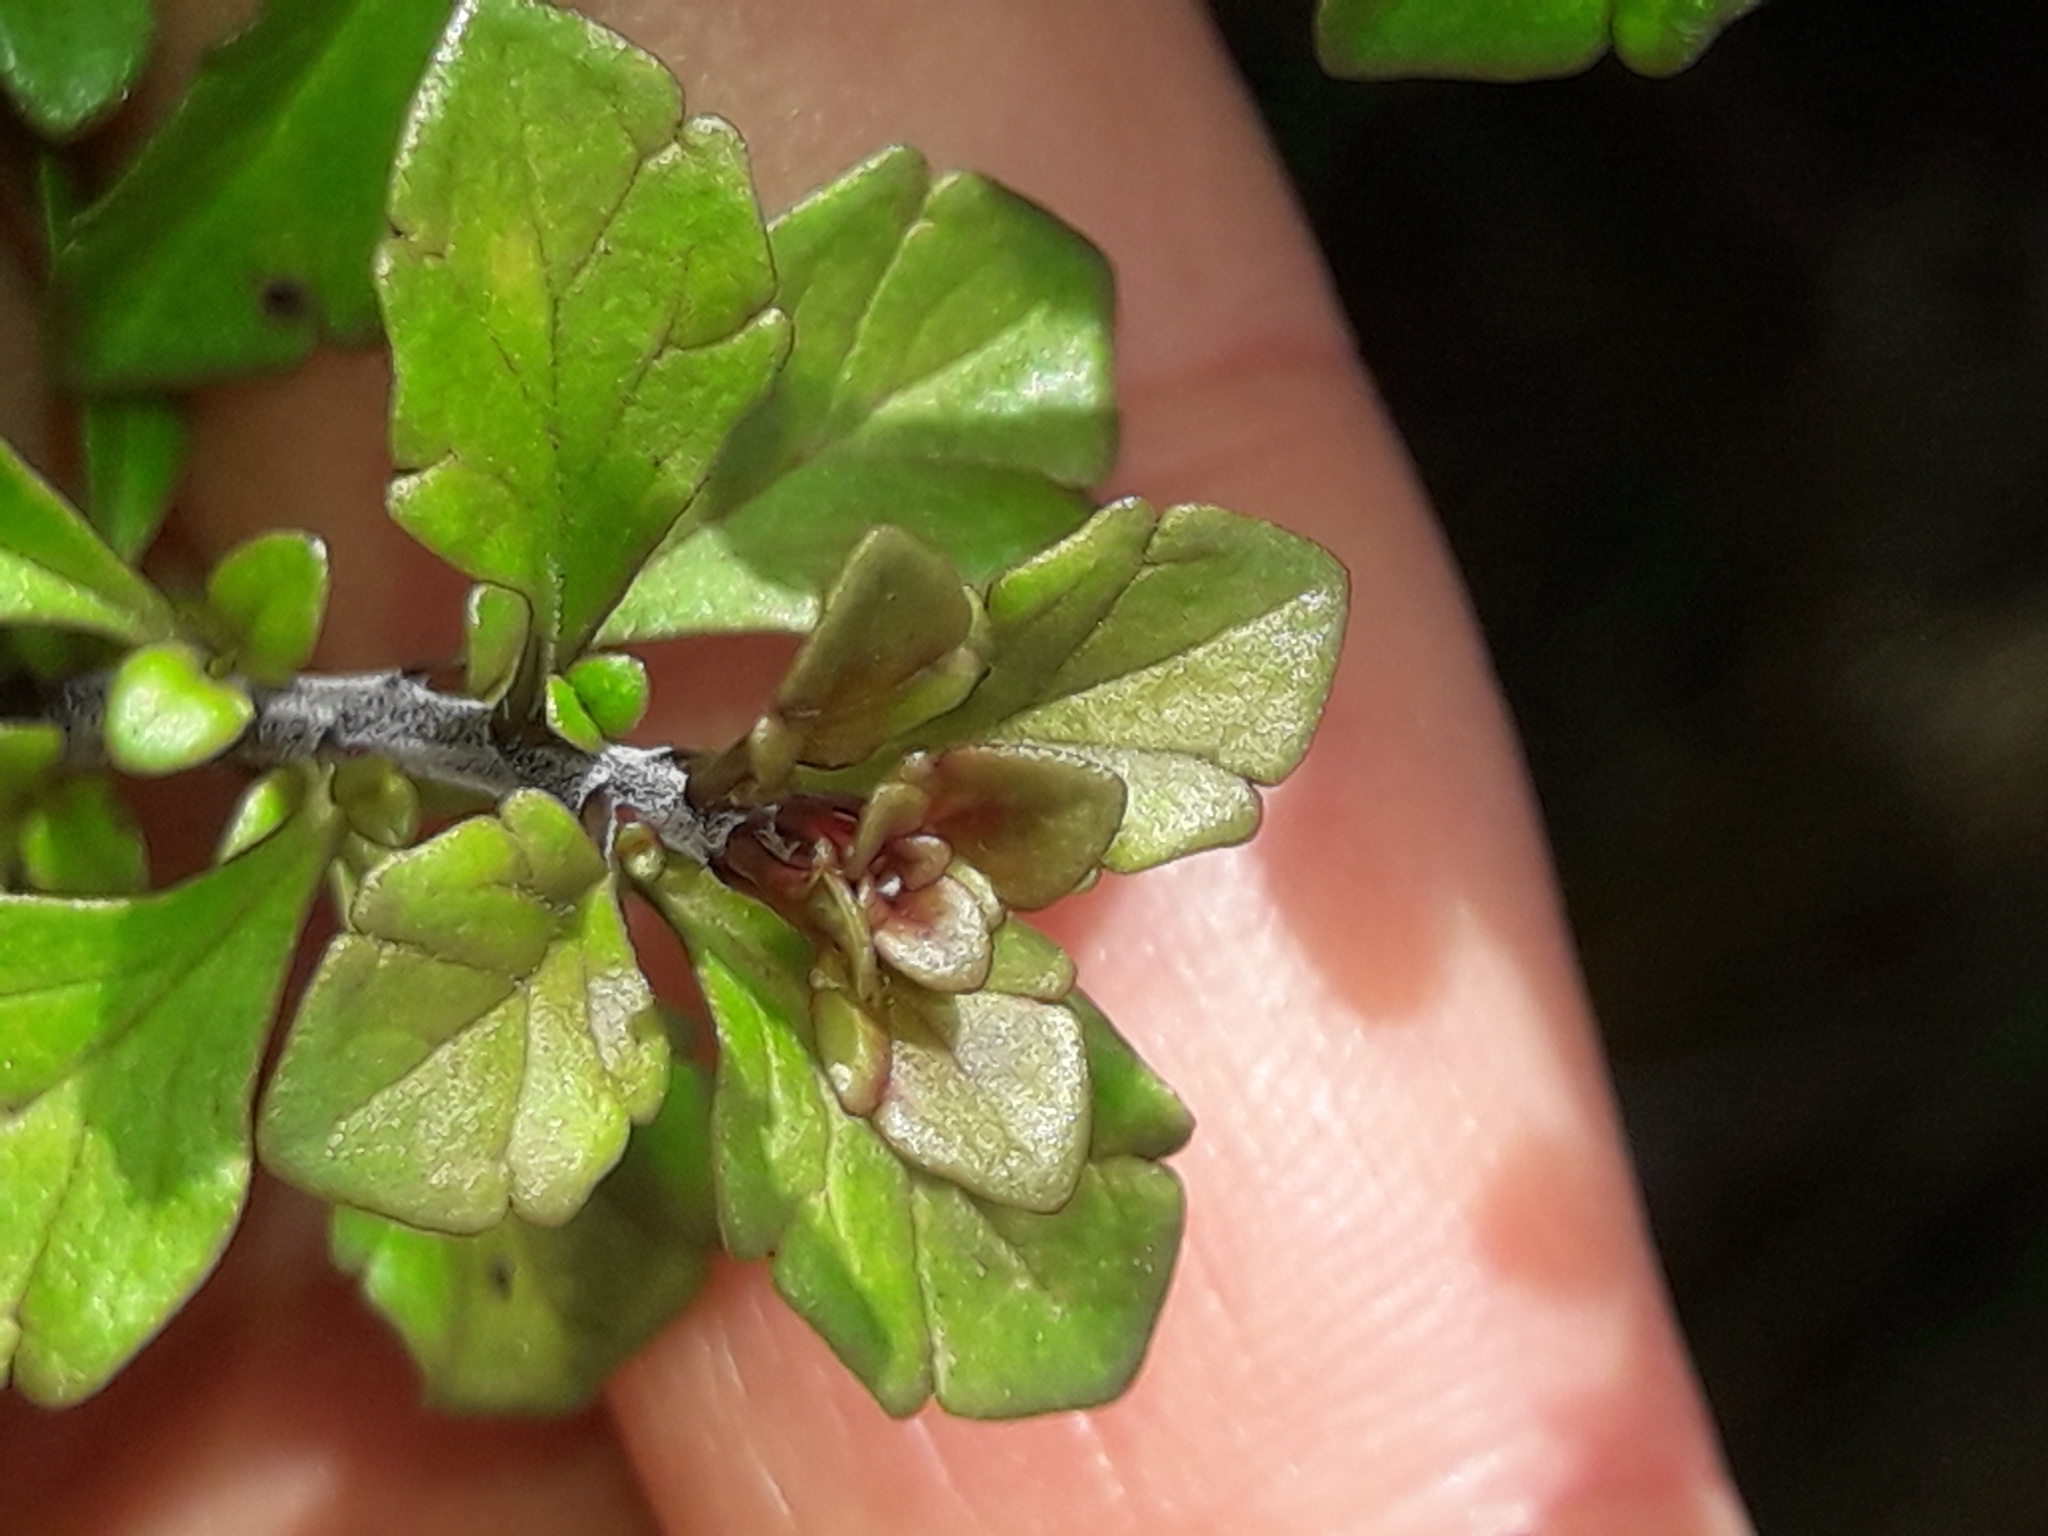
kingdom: Plantae
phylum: Tracheophyta
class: Magnoliopsida
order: Lamiales
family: Orobanchaceae
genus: Euphrasia
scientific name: Euphrasia cuneata
